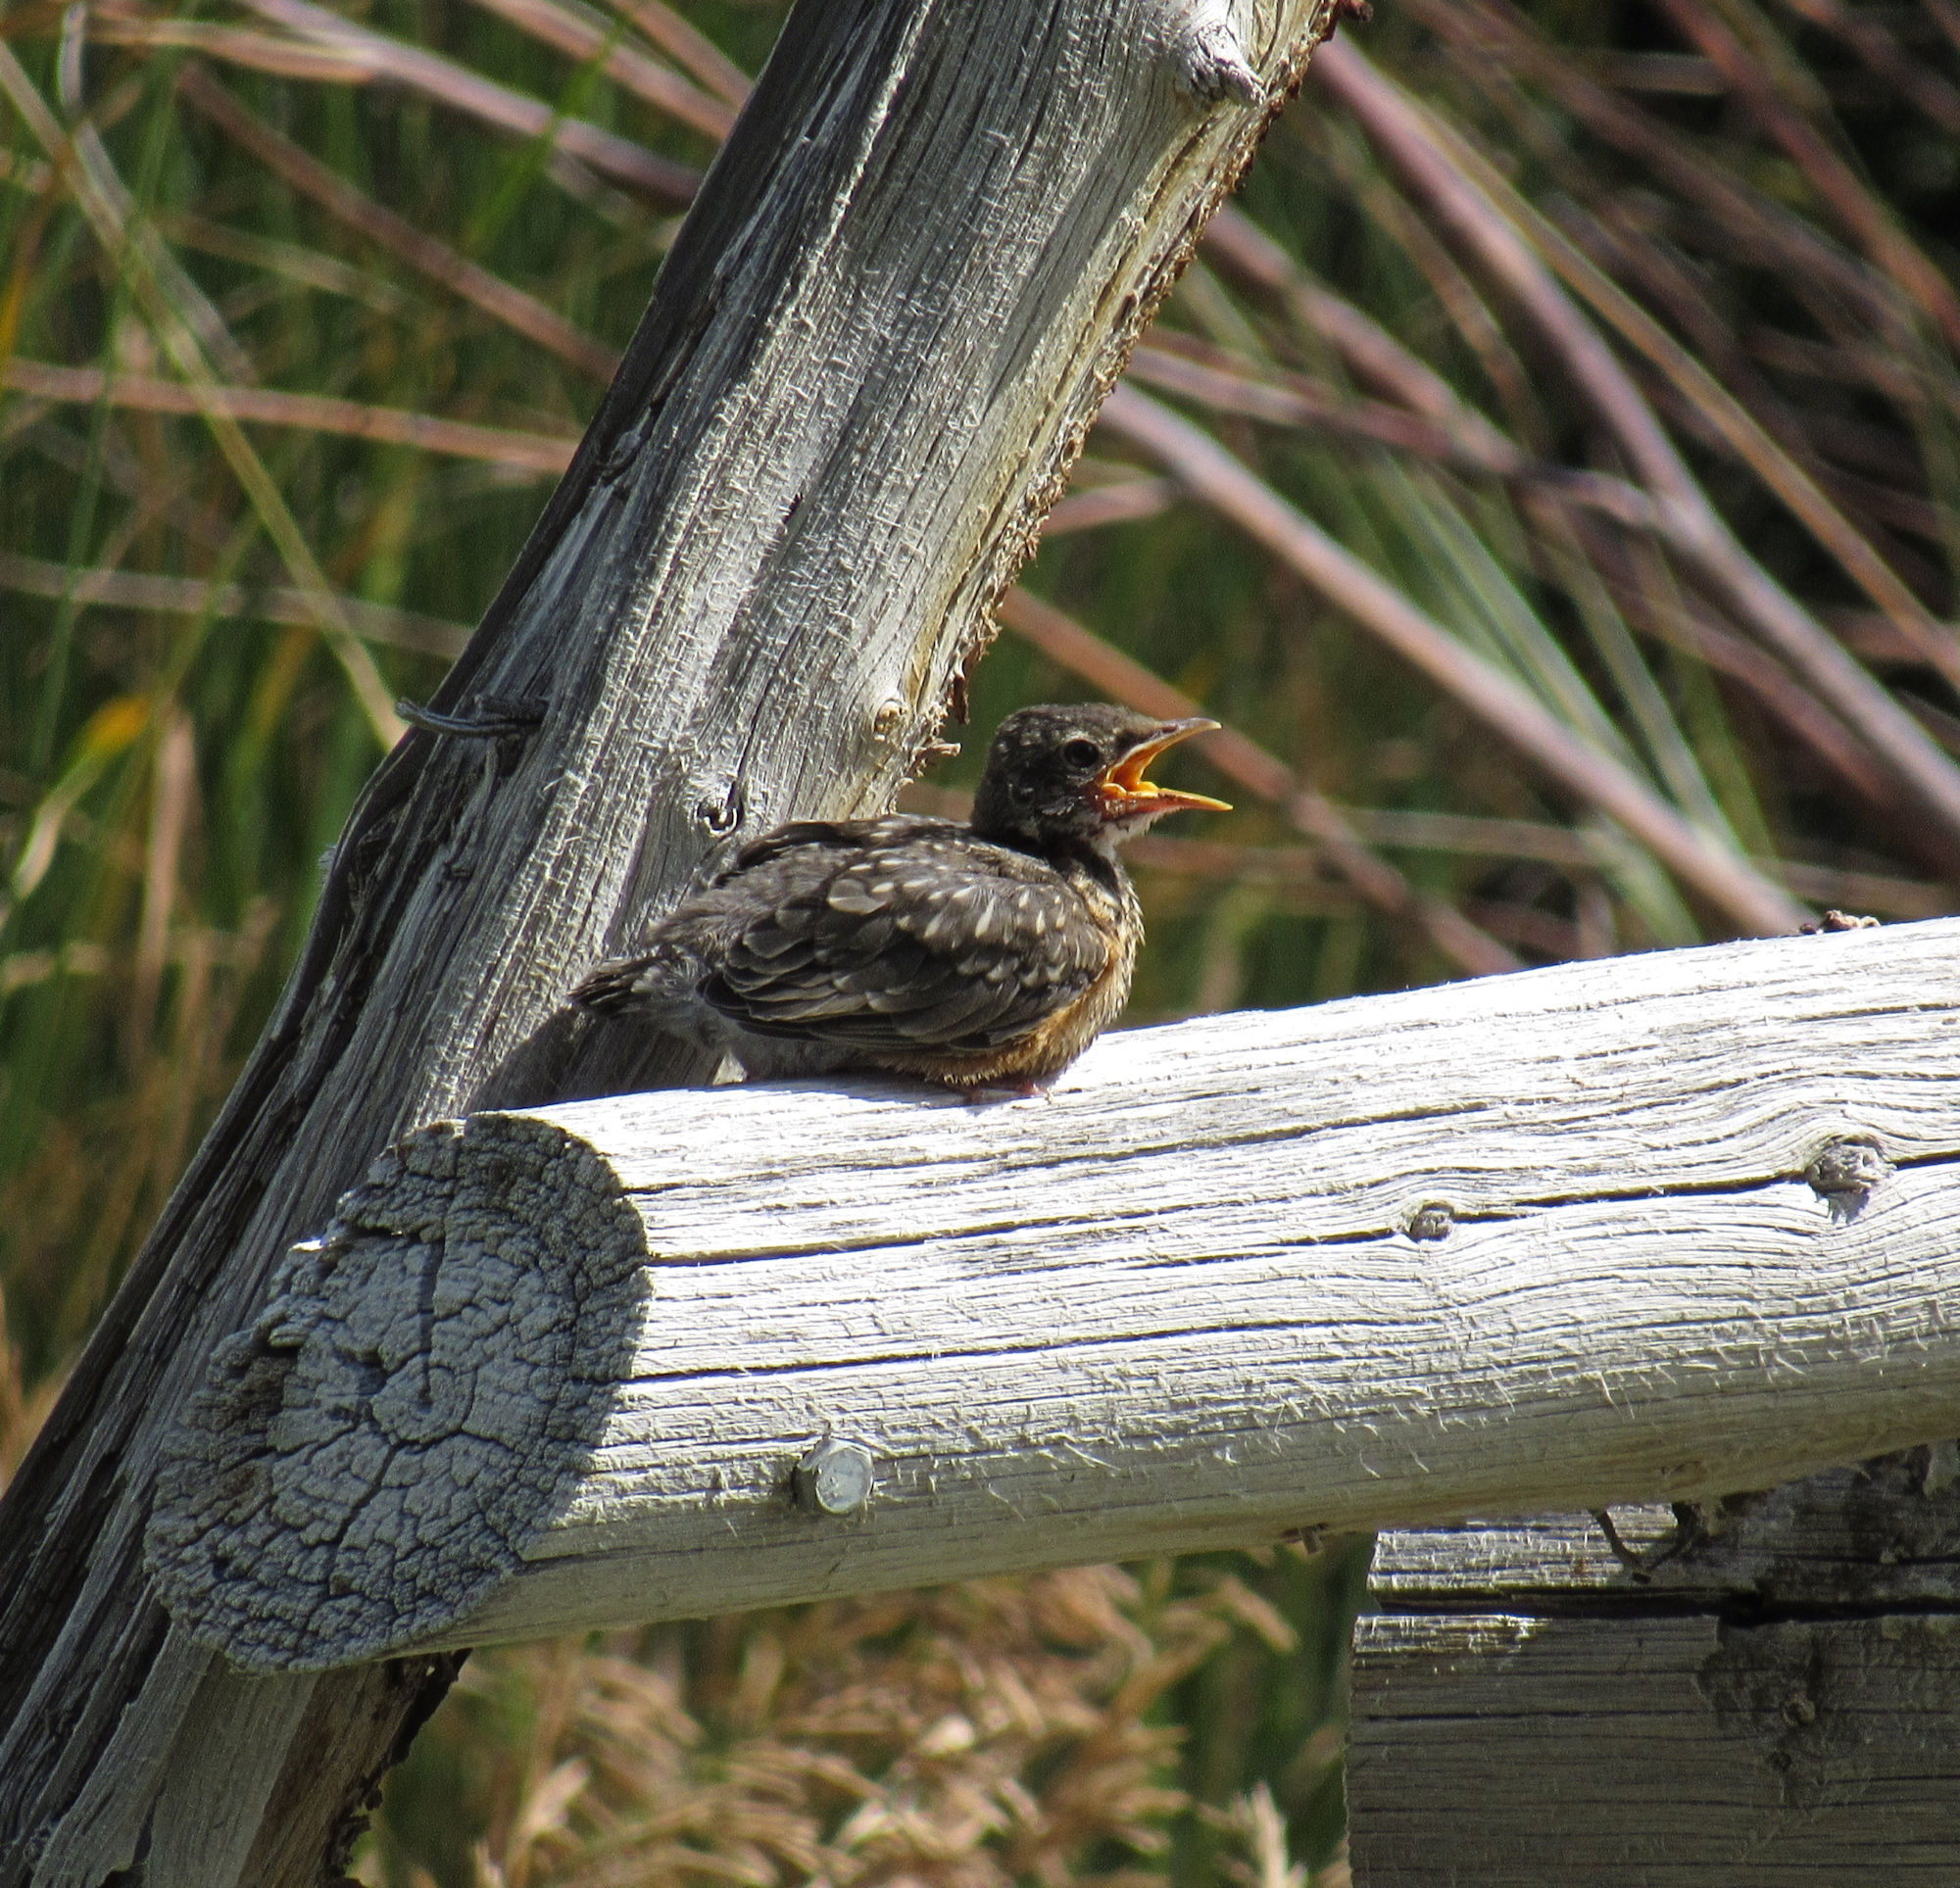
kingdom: Animalia
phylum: Chordata
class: Aves
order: Passeriformes
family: Turdidae
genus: Turdus
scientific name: Turdus migratorius
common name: American robin
